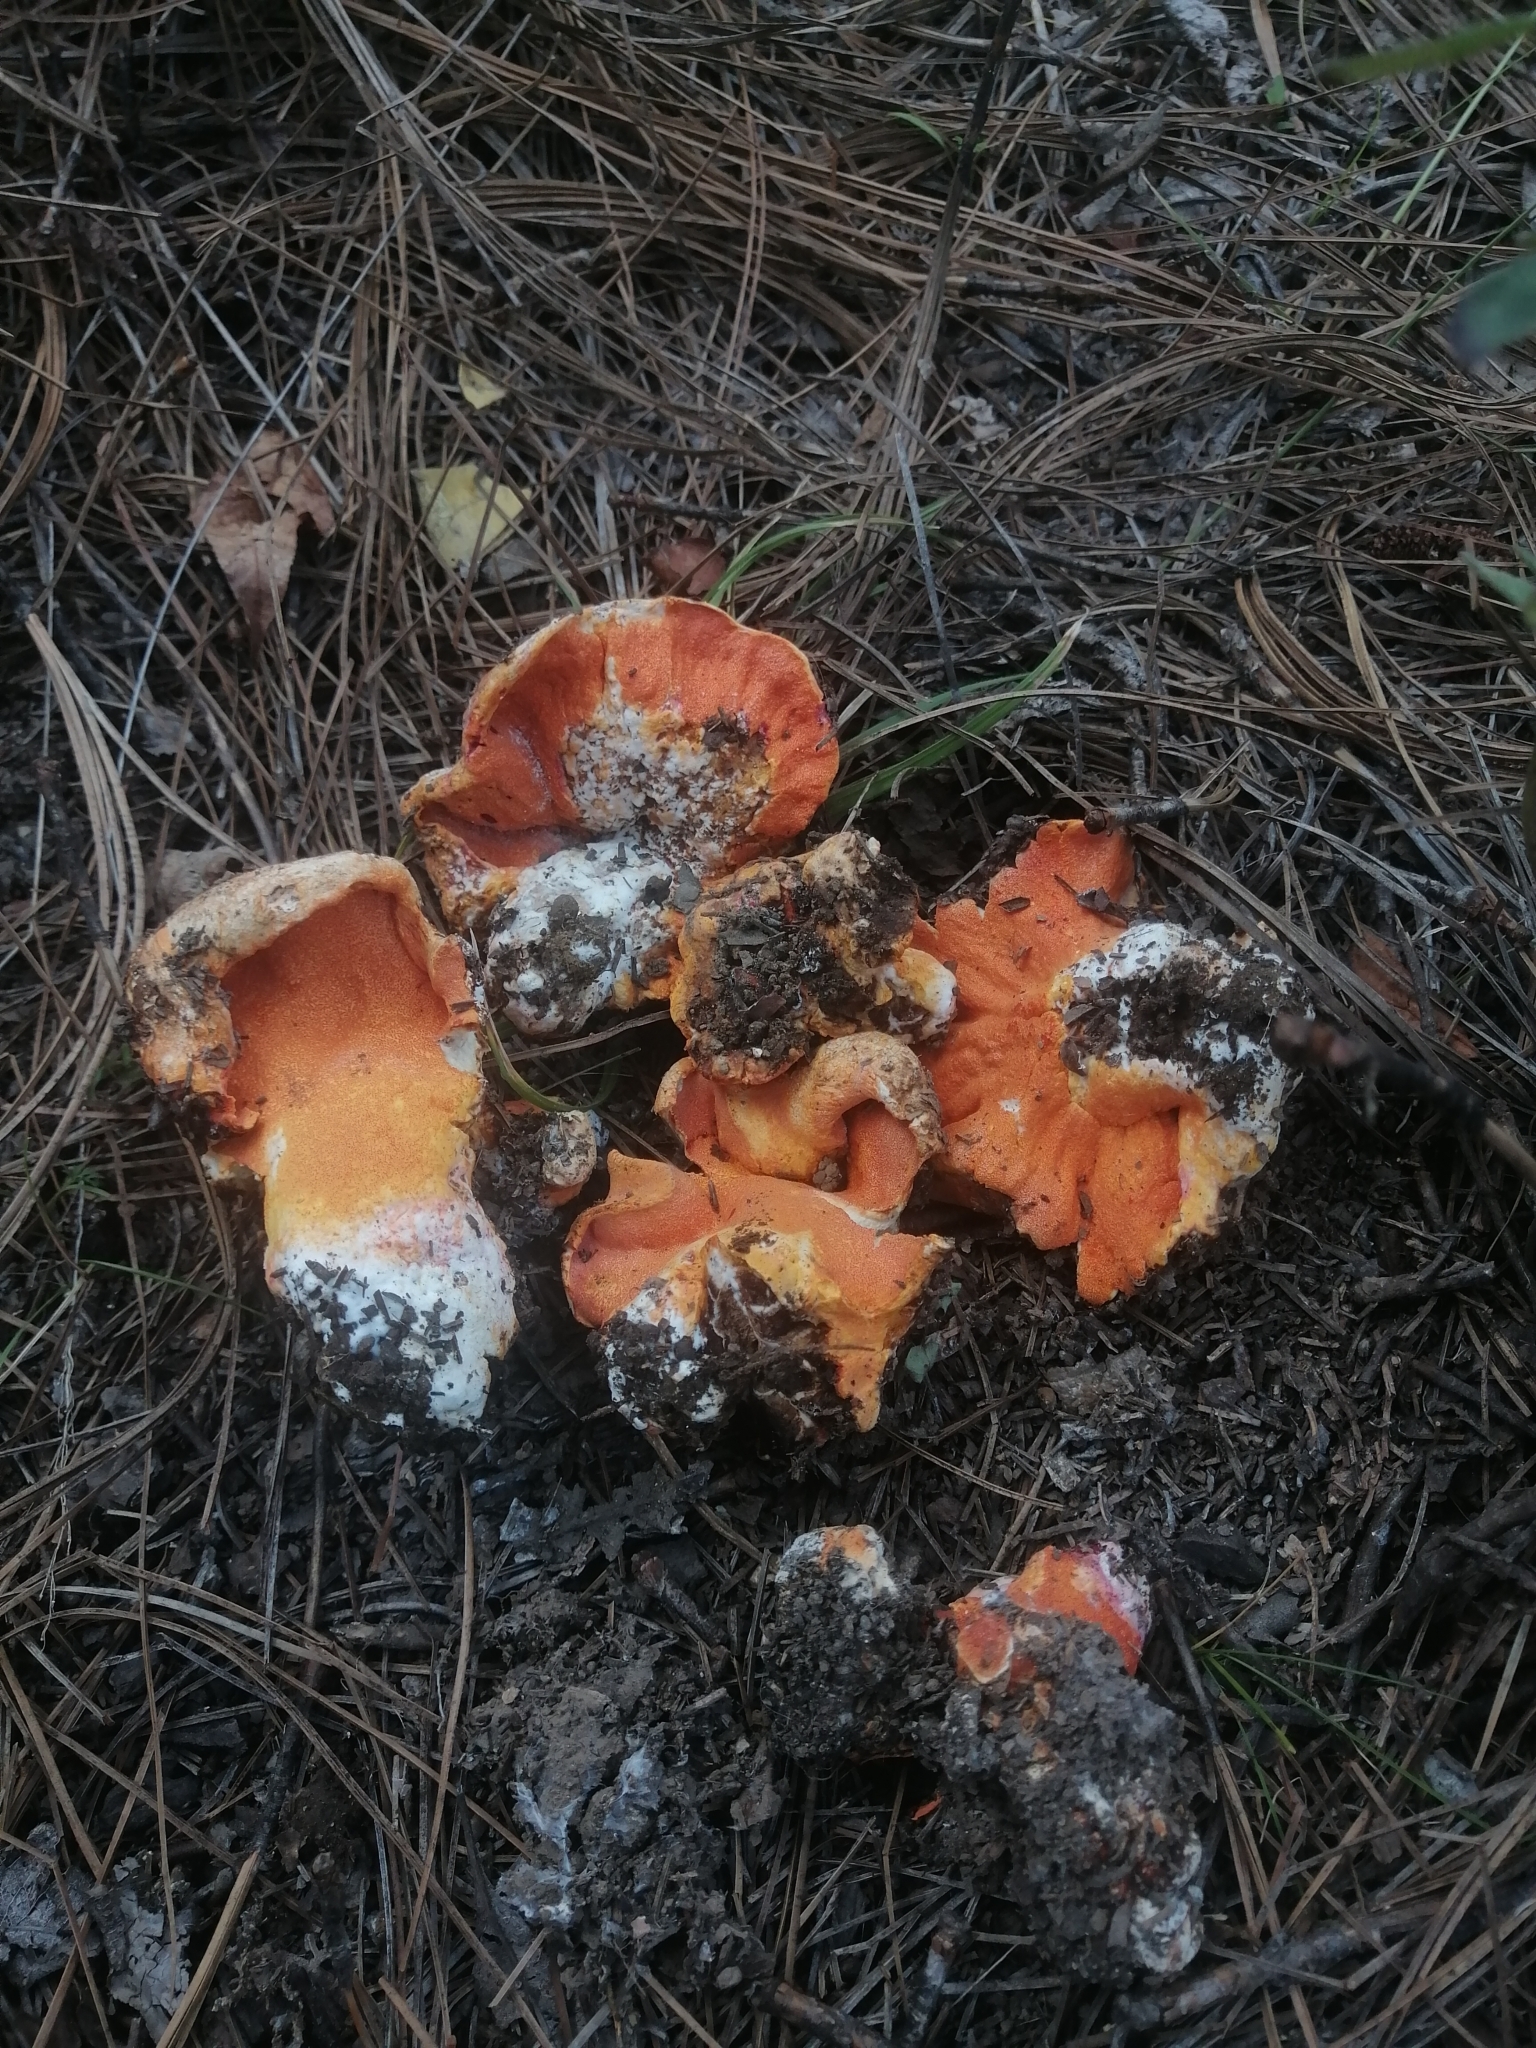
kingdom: Fungi
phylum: Ascomycota
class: Sordariomycetes
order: Hypocreales
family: Hypocreaceae
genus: Hypomyces
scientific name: Hypomyces lactifluorum
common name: Lobster mushroom
